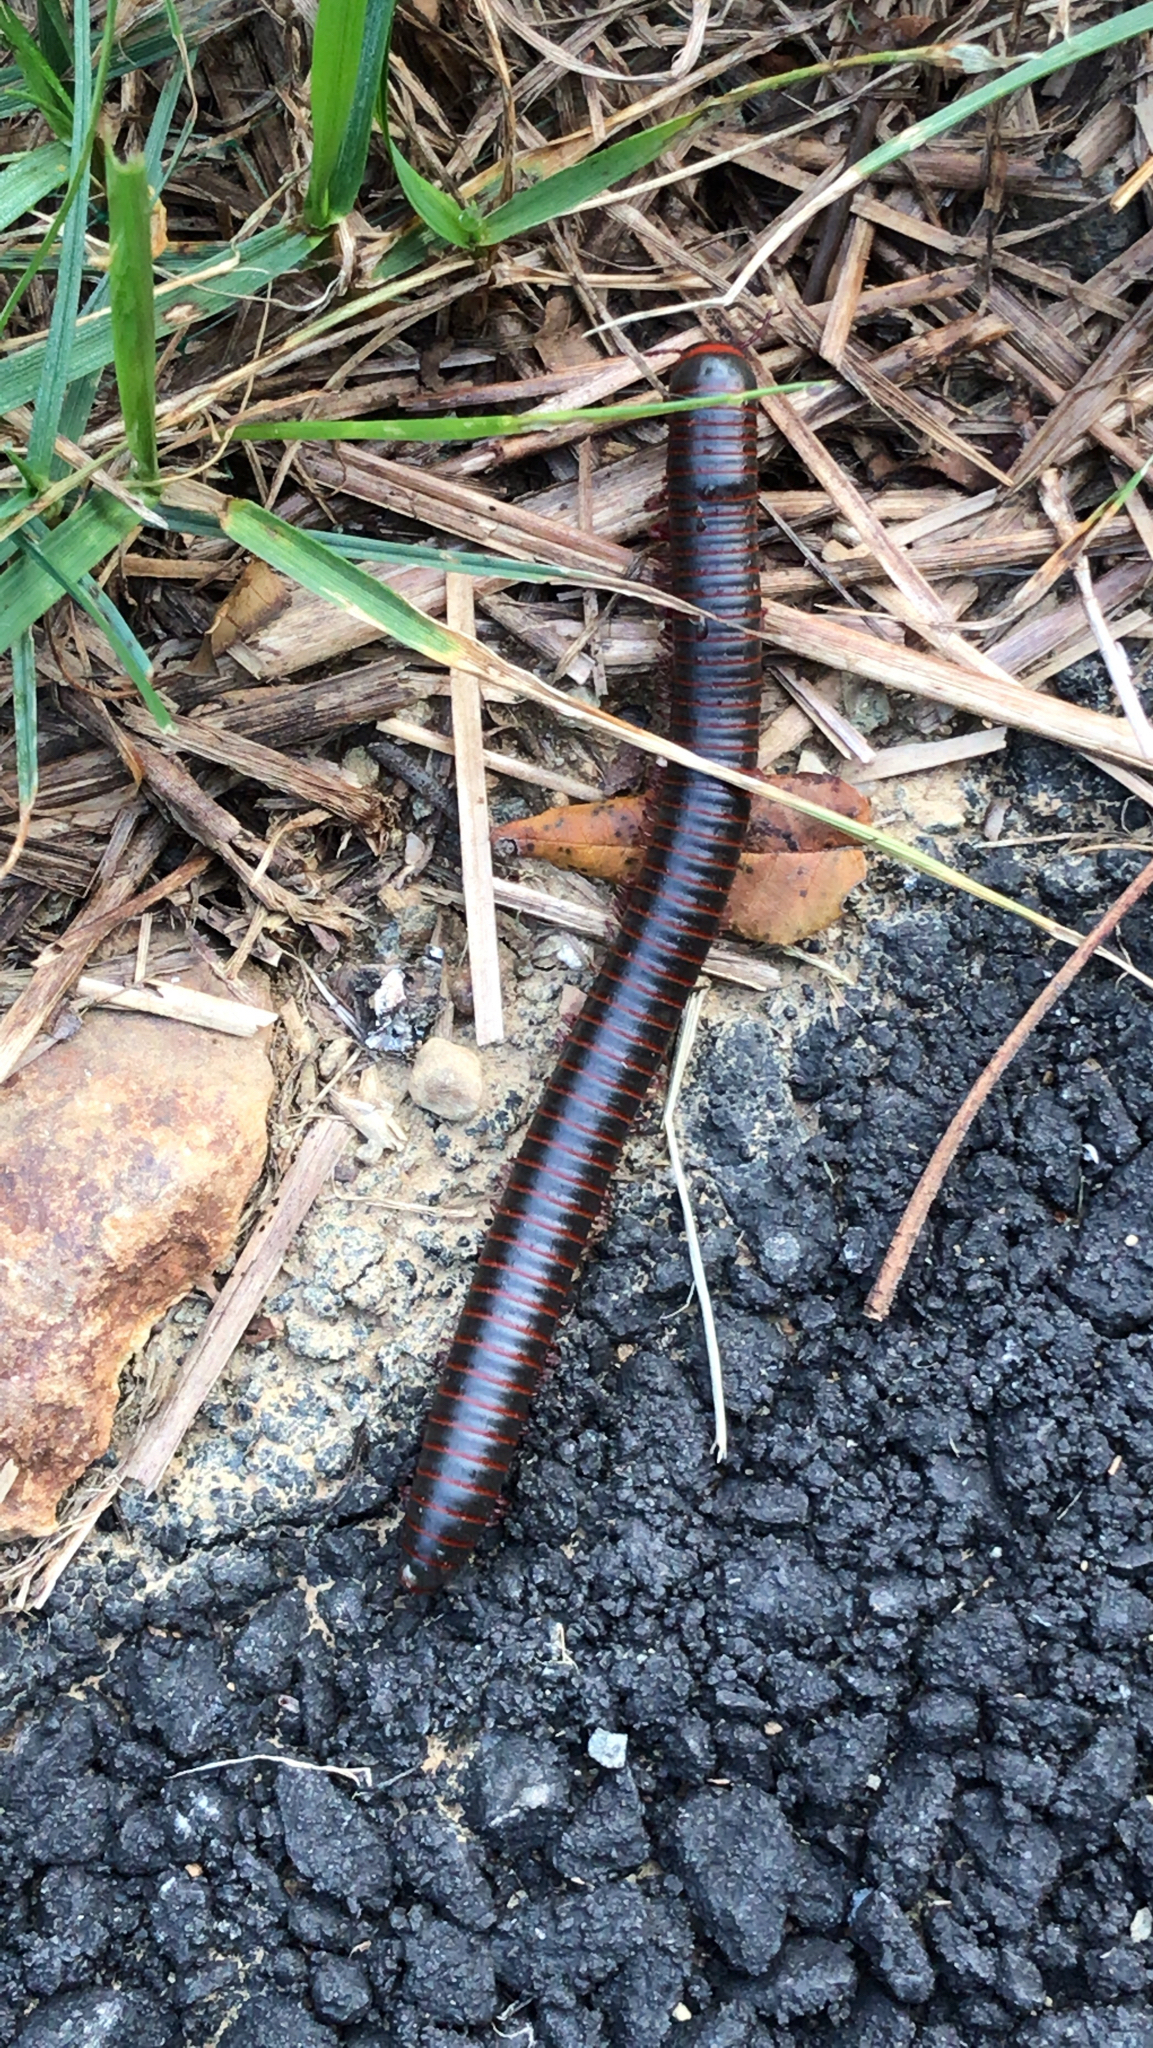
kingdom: Animalia
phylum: Arthropoda
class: Diplopoda
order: Spirobolida
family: Spirobolidae
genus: Narceus
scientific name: Narceus
